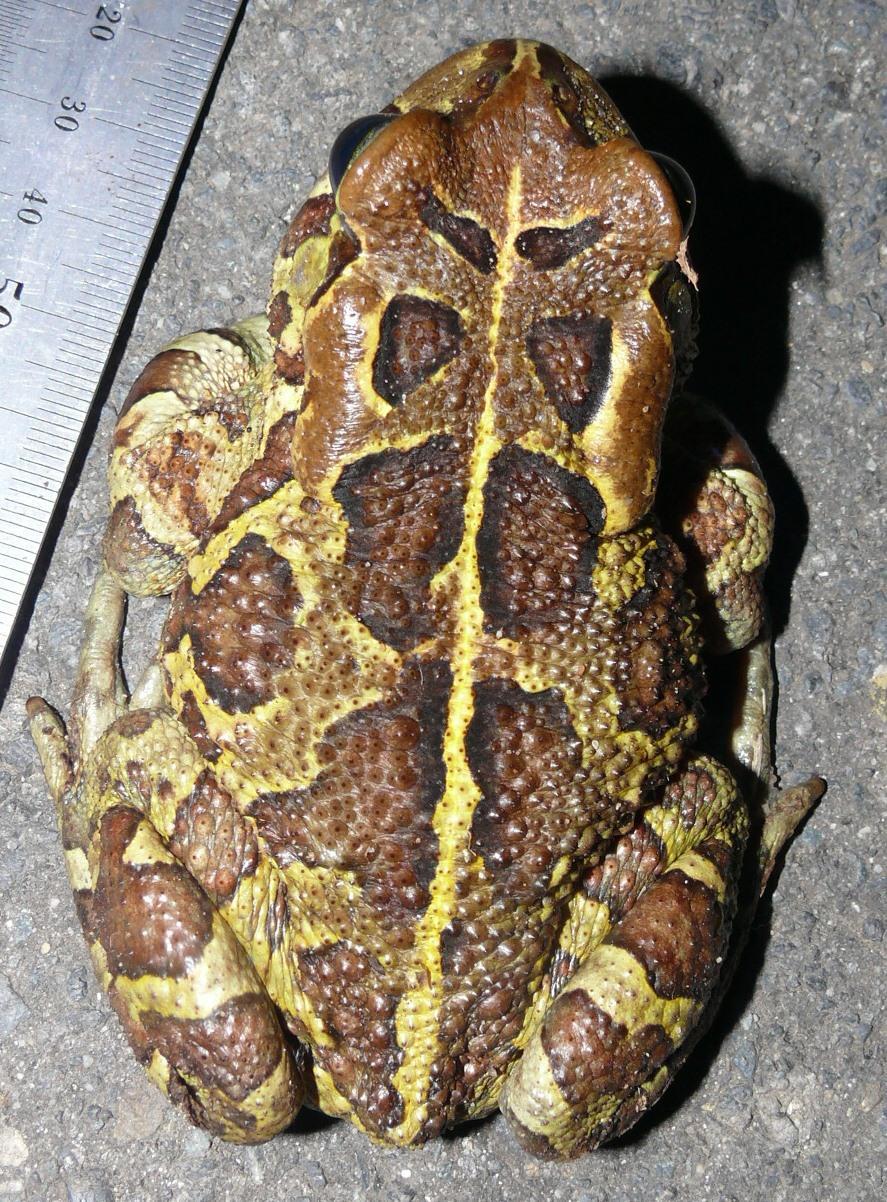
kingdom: Animalia
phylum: Chordata
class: Amphibia
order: Anura
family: Bufonidae
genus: Sclerophrys
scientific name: Sclerophrys pantherina
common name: Panther toad
